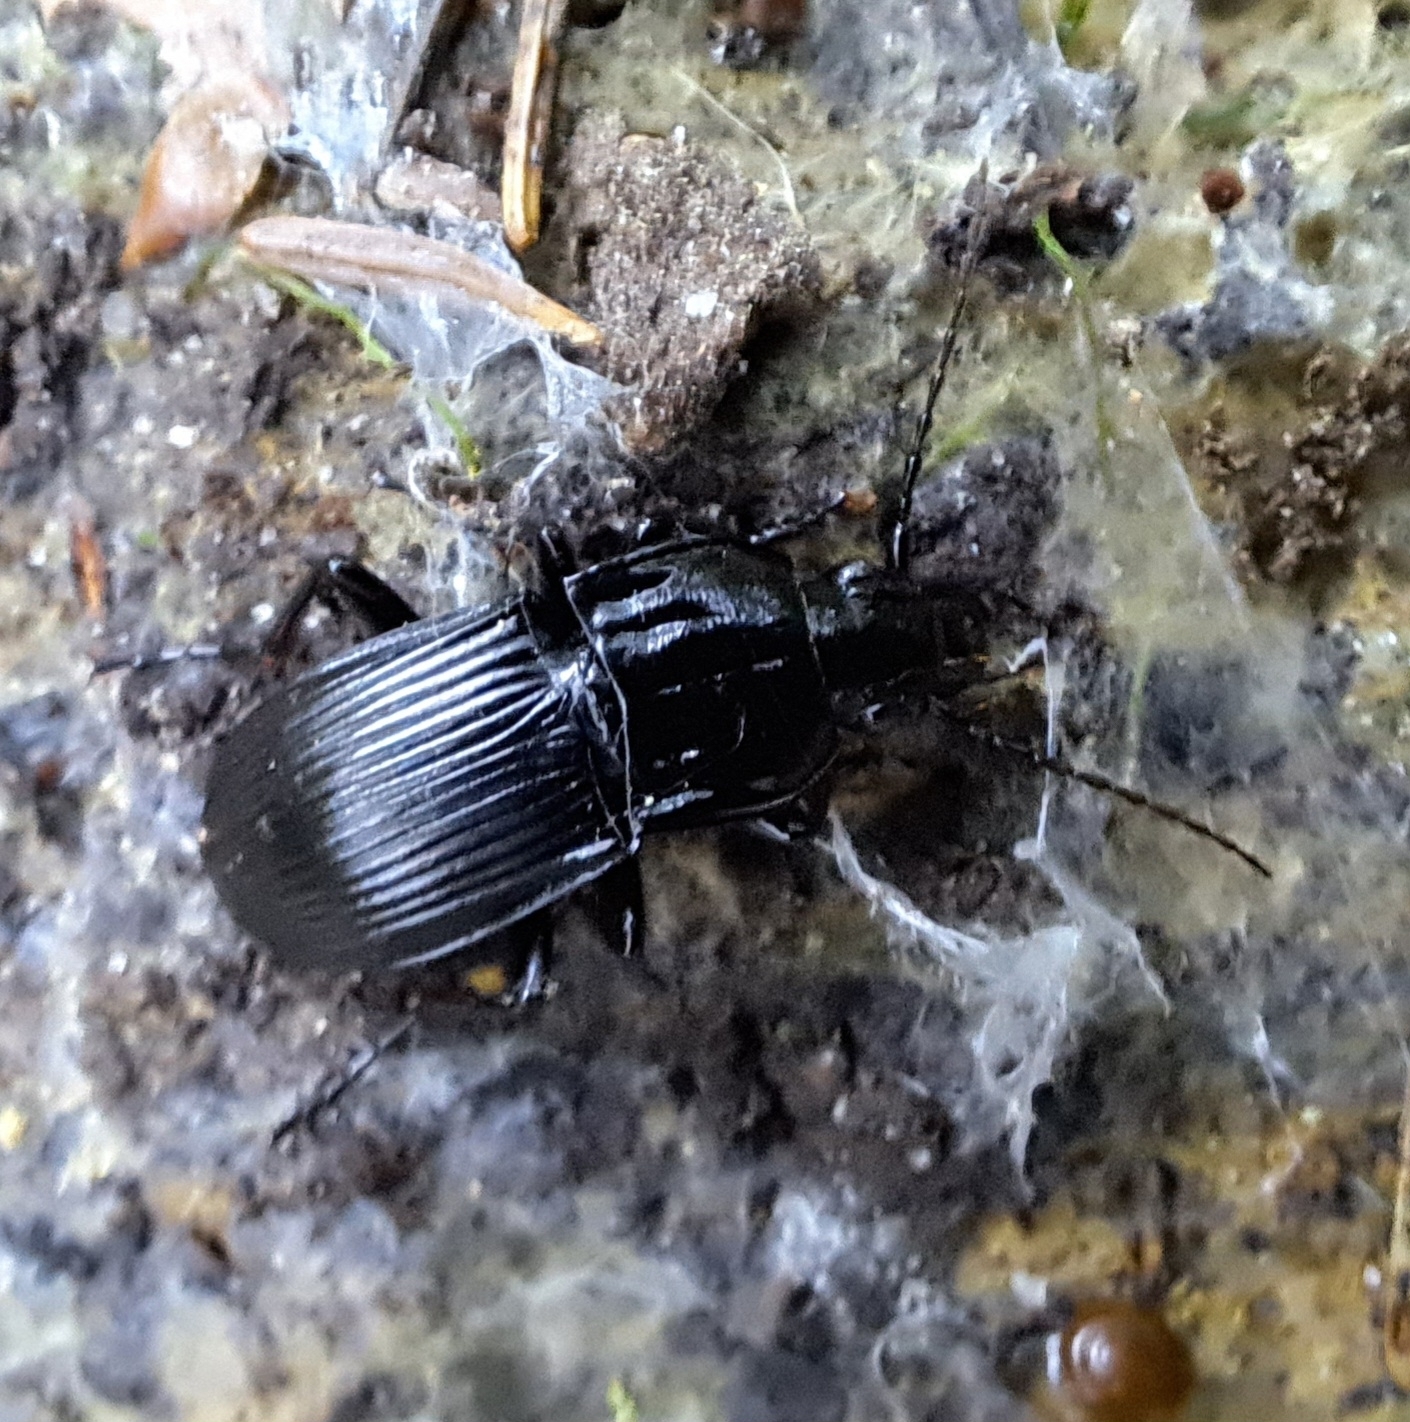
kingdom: Animalia
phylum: Arthropoda
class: Insecta
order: Coleoptera
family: Carabidae
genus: Abax
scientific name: Abax parallelepipedus
